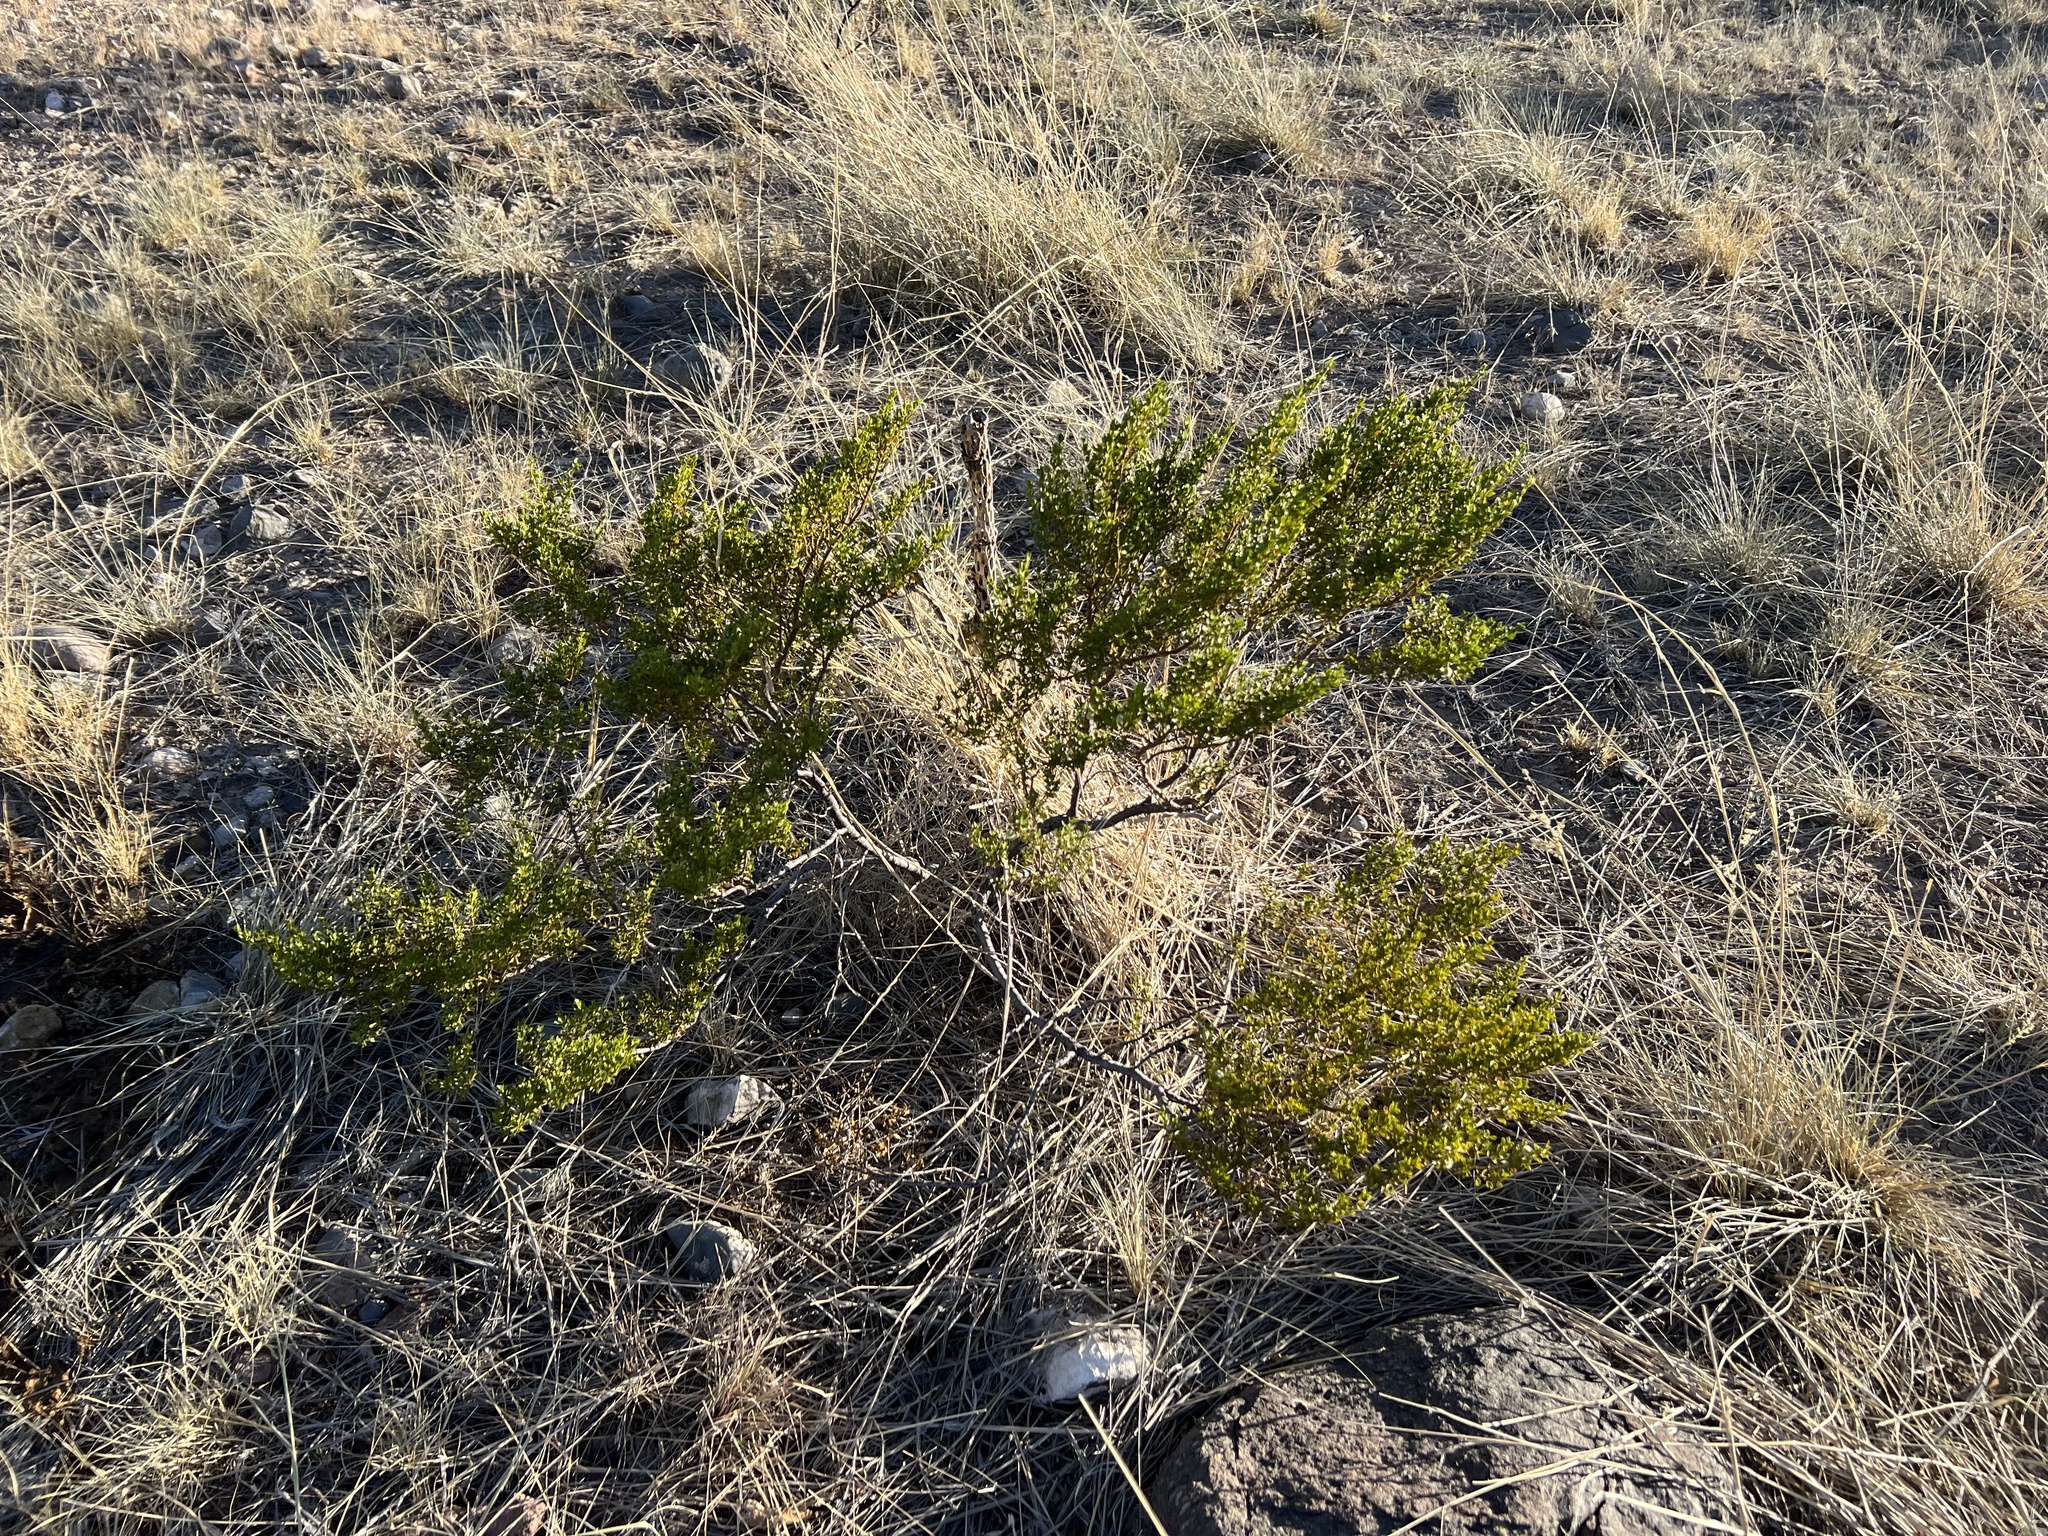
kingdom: Plantae
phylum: Tracheophyta
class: Magnoliopsida
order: Zygophyllales
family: Zygophyllaceae
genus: Larrea
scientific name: Larrea tridentata
